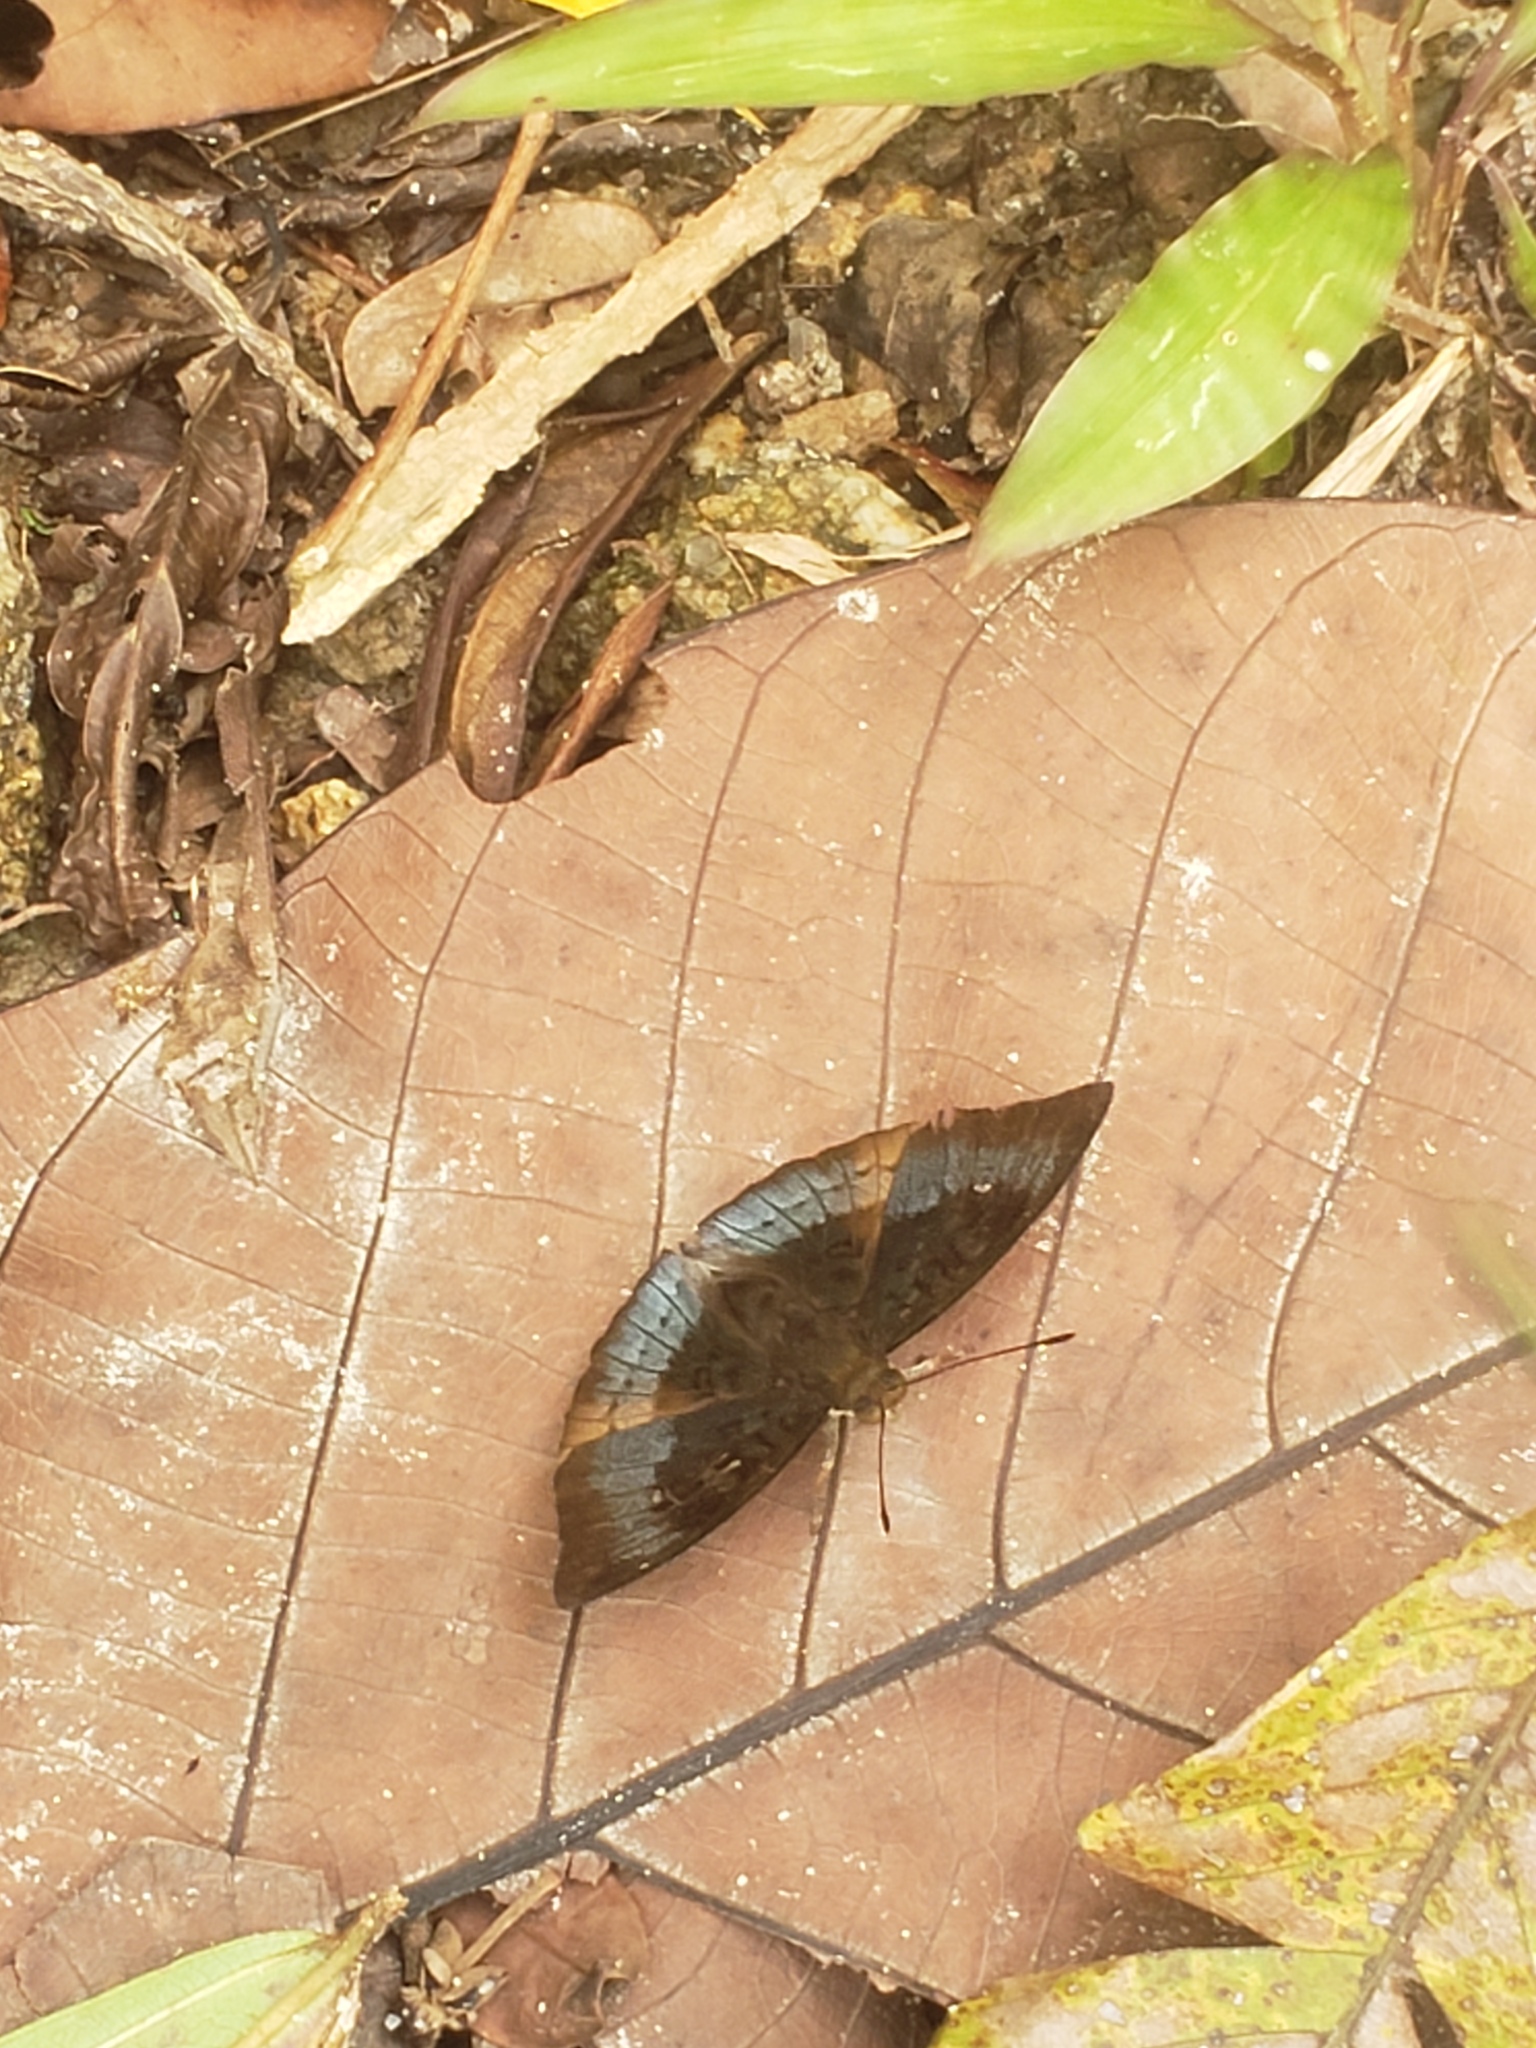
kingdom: Animalia
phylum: Arthropoda
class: Insecta
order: Lepidoptera
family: Nymphalidae
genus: Euthalia
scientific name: Euthalia monina
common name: Powdered baron
